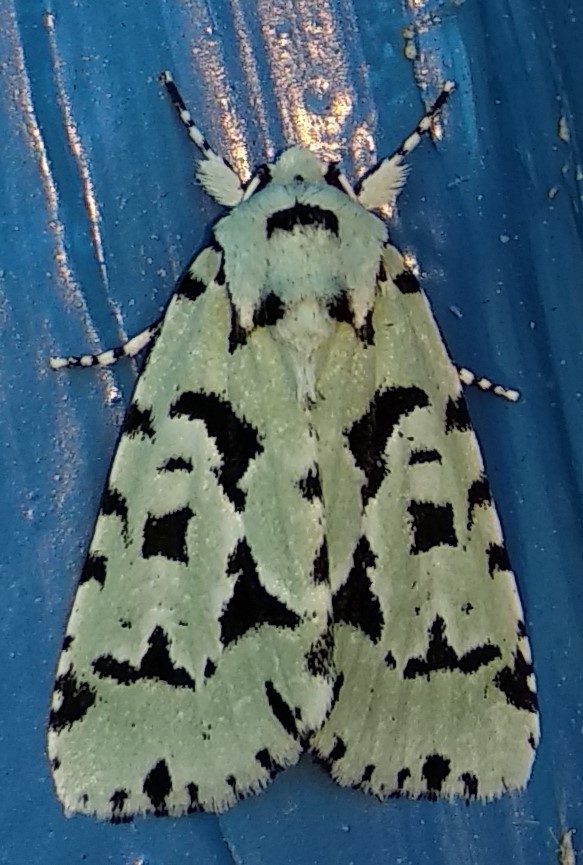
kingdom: Animalia
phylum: Arthropoda
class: Insecta
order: Lepidoptera
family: Noctuidae
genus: Acronicta
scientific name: Acronicta fallax
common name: Green marvel
